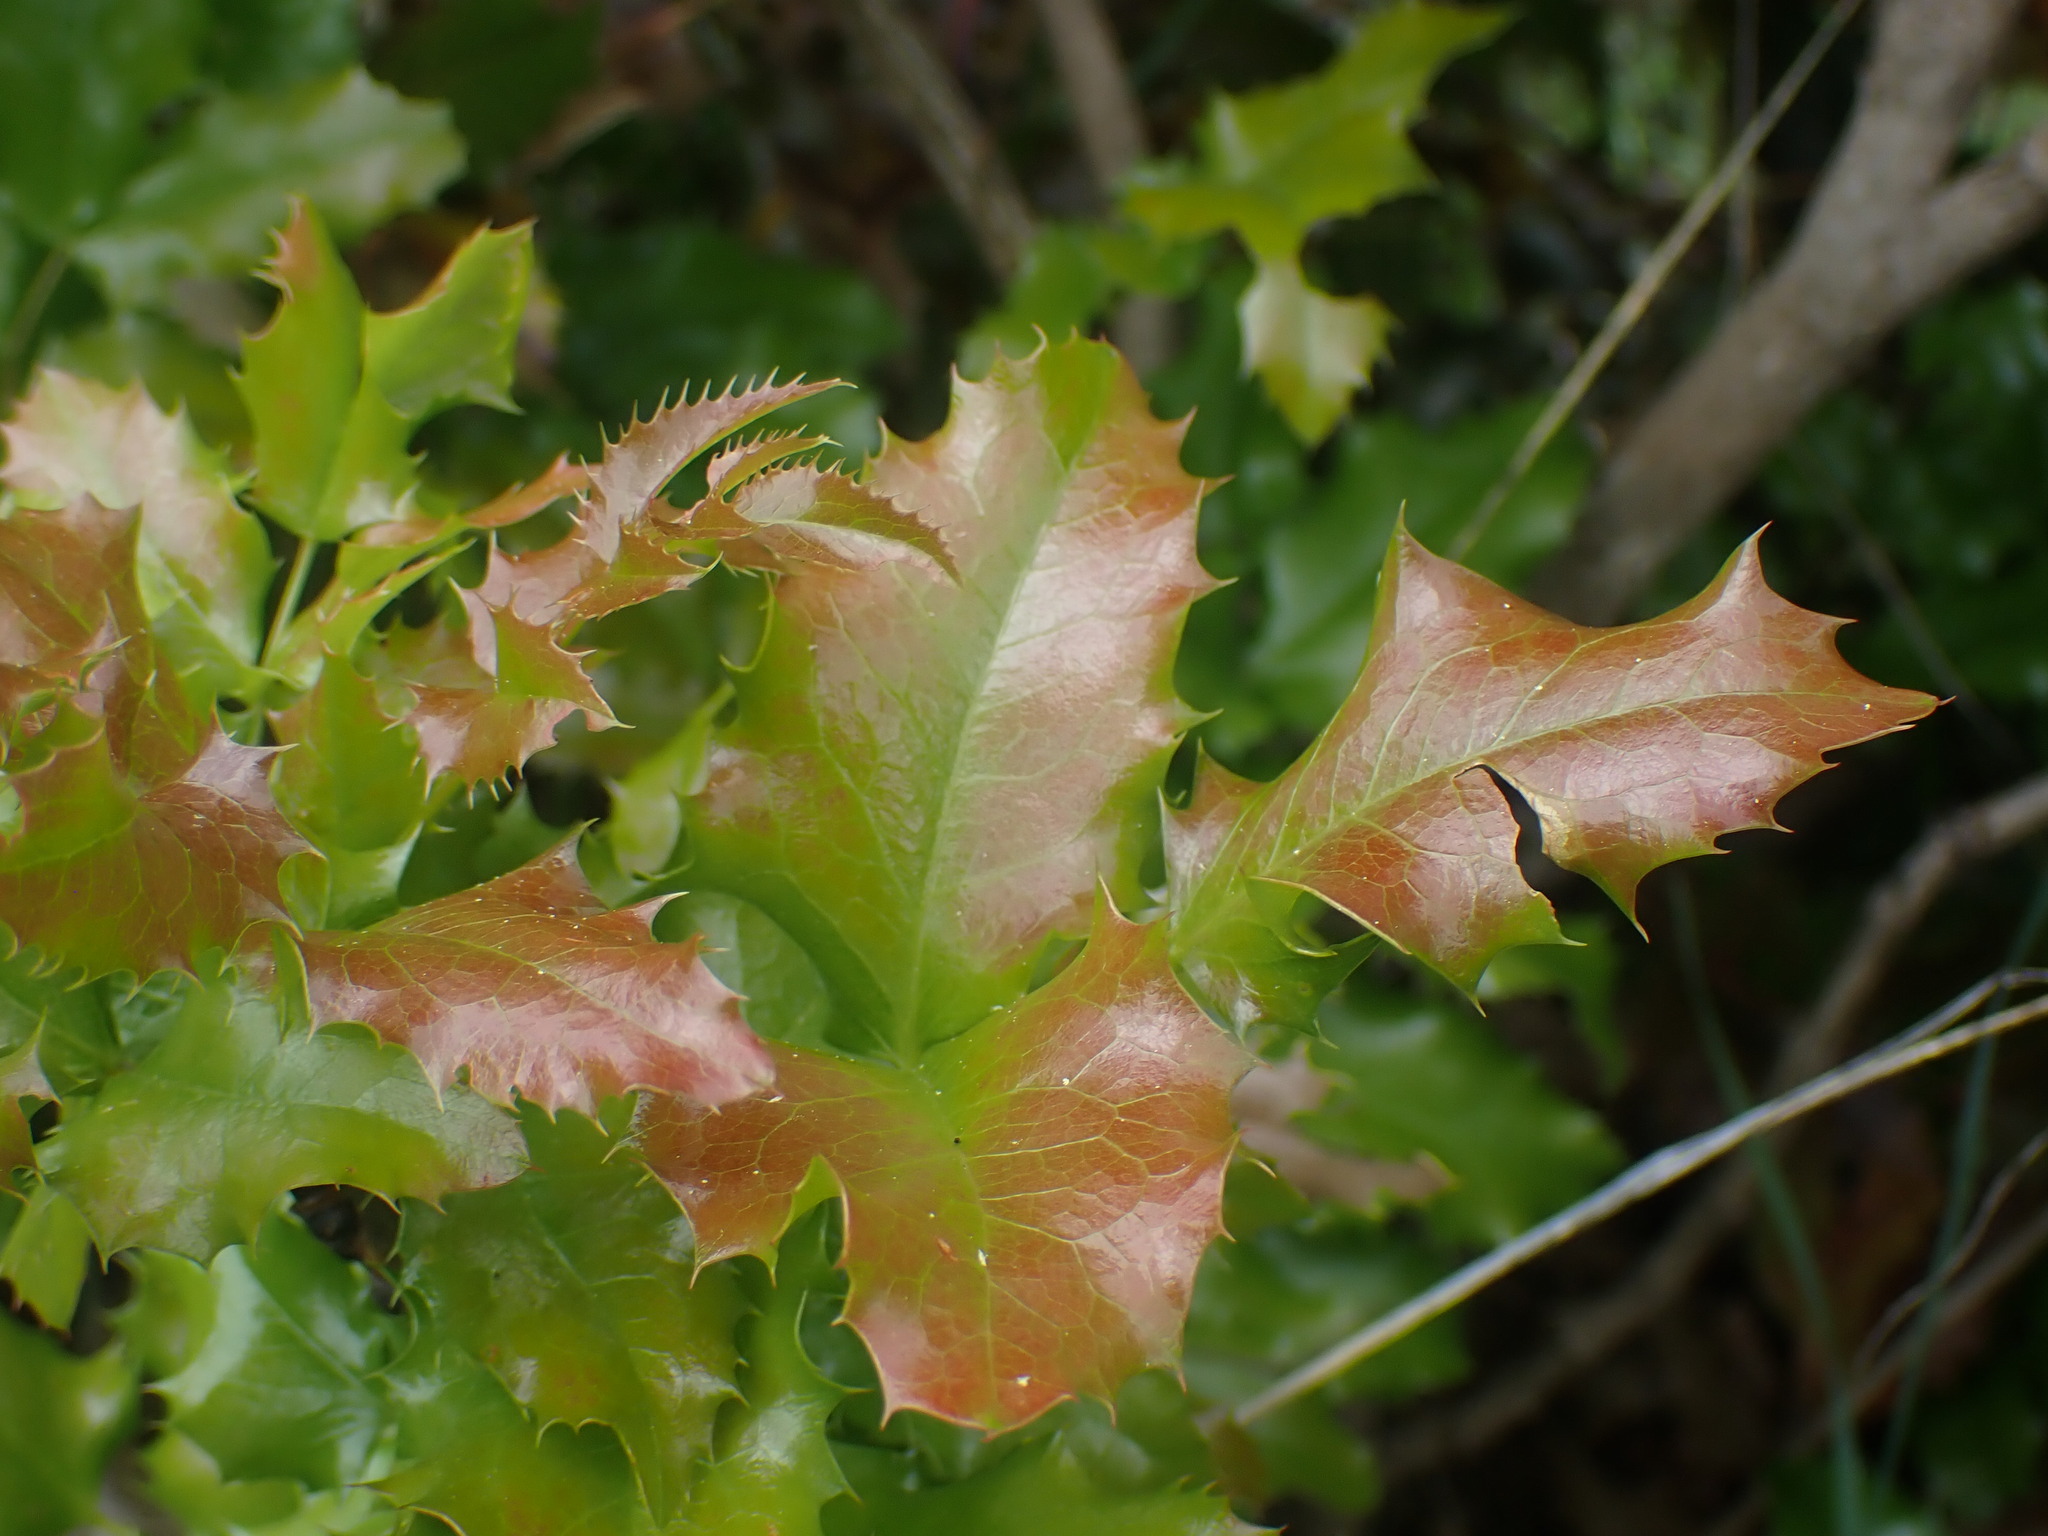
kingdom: Plantae
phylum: Tracheophyta
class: Magnoliopsida
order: Ranunculales
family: Berberidaceae
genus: Mahonia
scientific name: Mahonia aquifolium
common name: Oregon-grape
